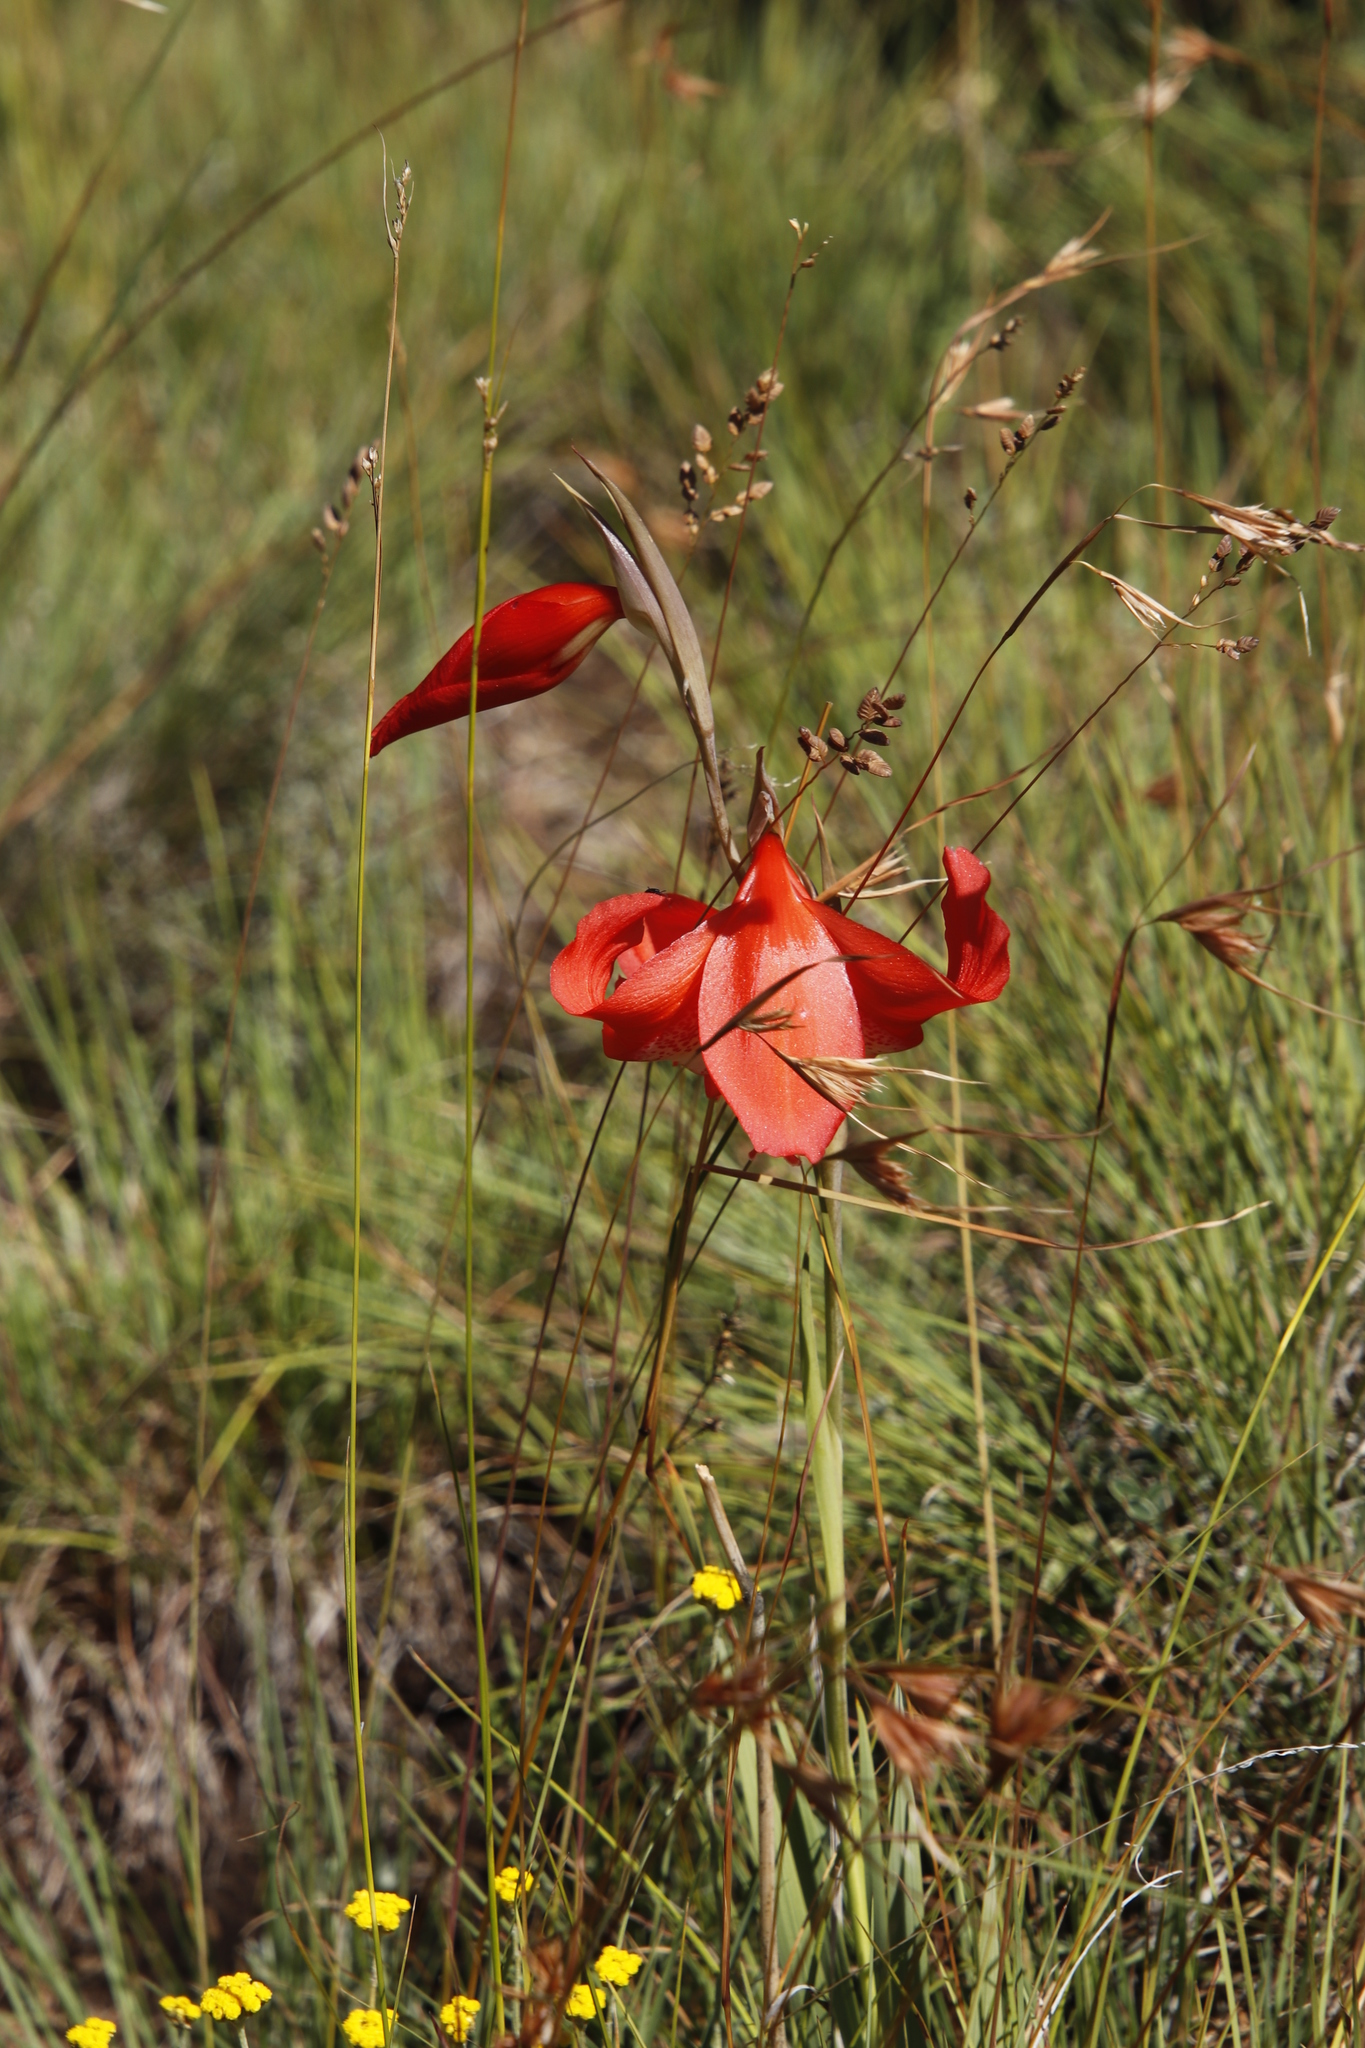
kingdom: Plantae
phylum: Tracheophyta
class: Liliopsida
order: Asparagales
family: Iridaceae
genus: Gladiolus
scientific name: Gladiolus saundersii
